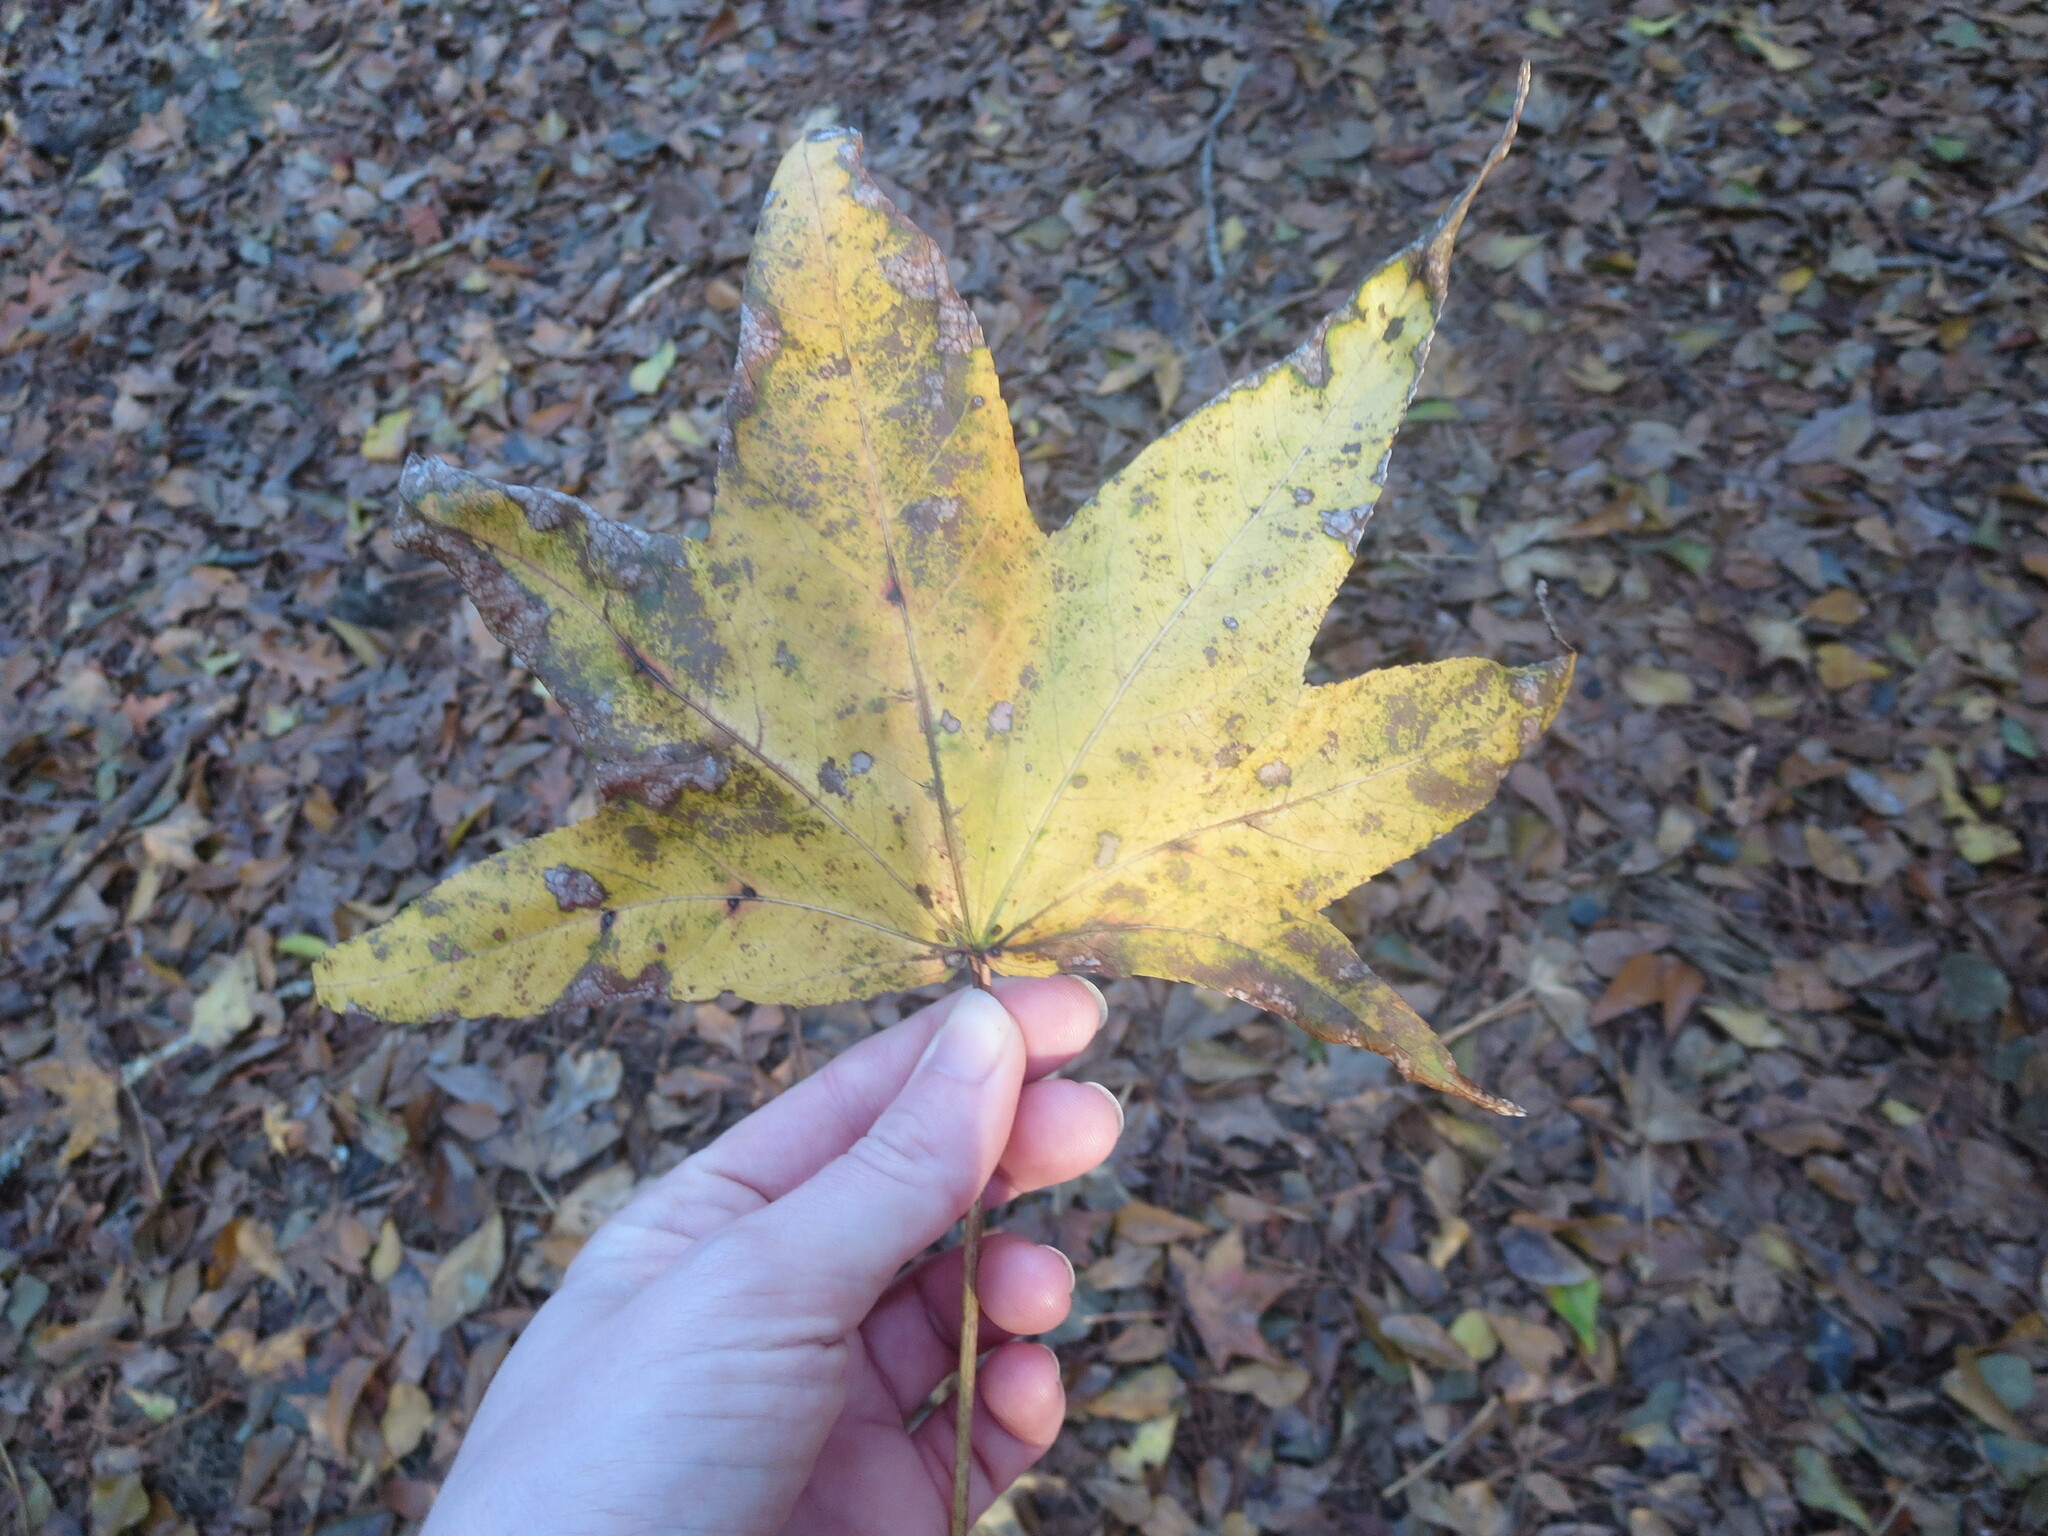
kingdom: Plantae
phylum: Tracheophyta
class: Magnoliopsida
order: Saxifragales
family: Altingiaceae
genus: Liquidambar
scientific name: Liquidambar styraciflua
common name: Sweet gum
